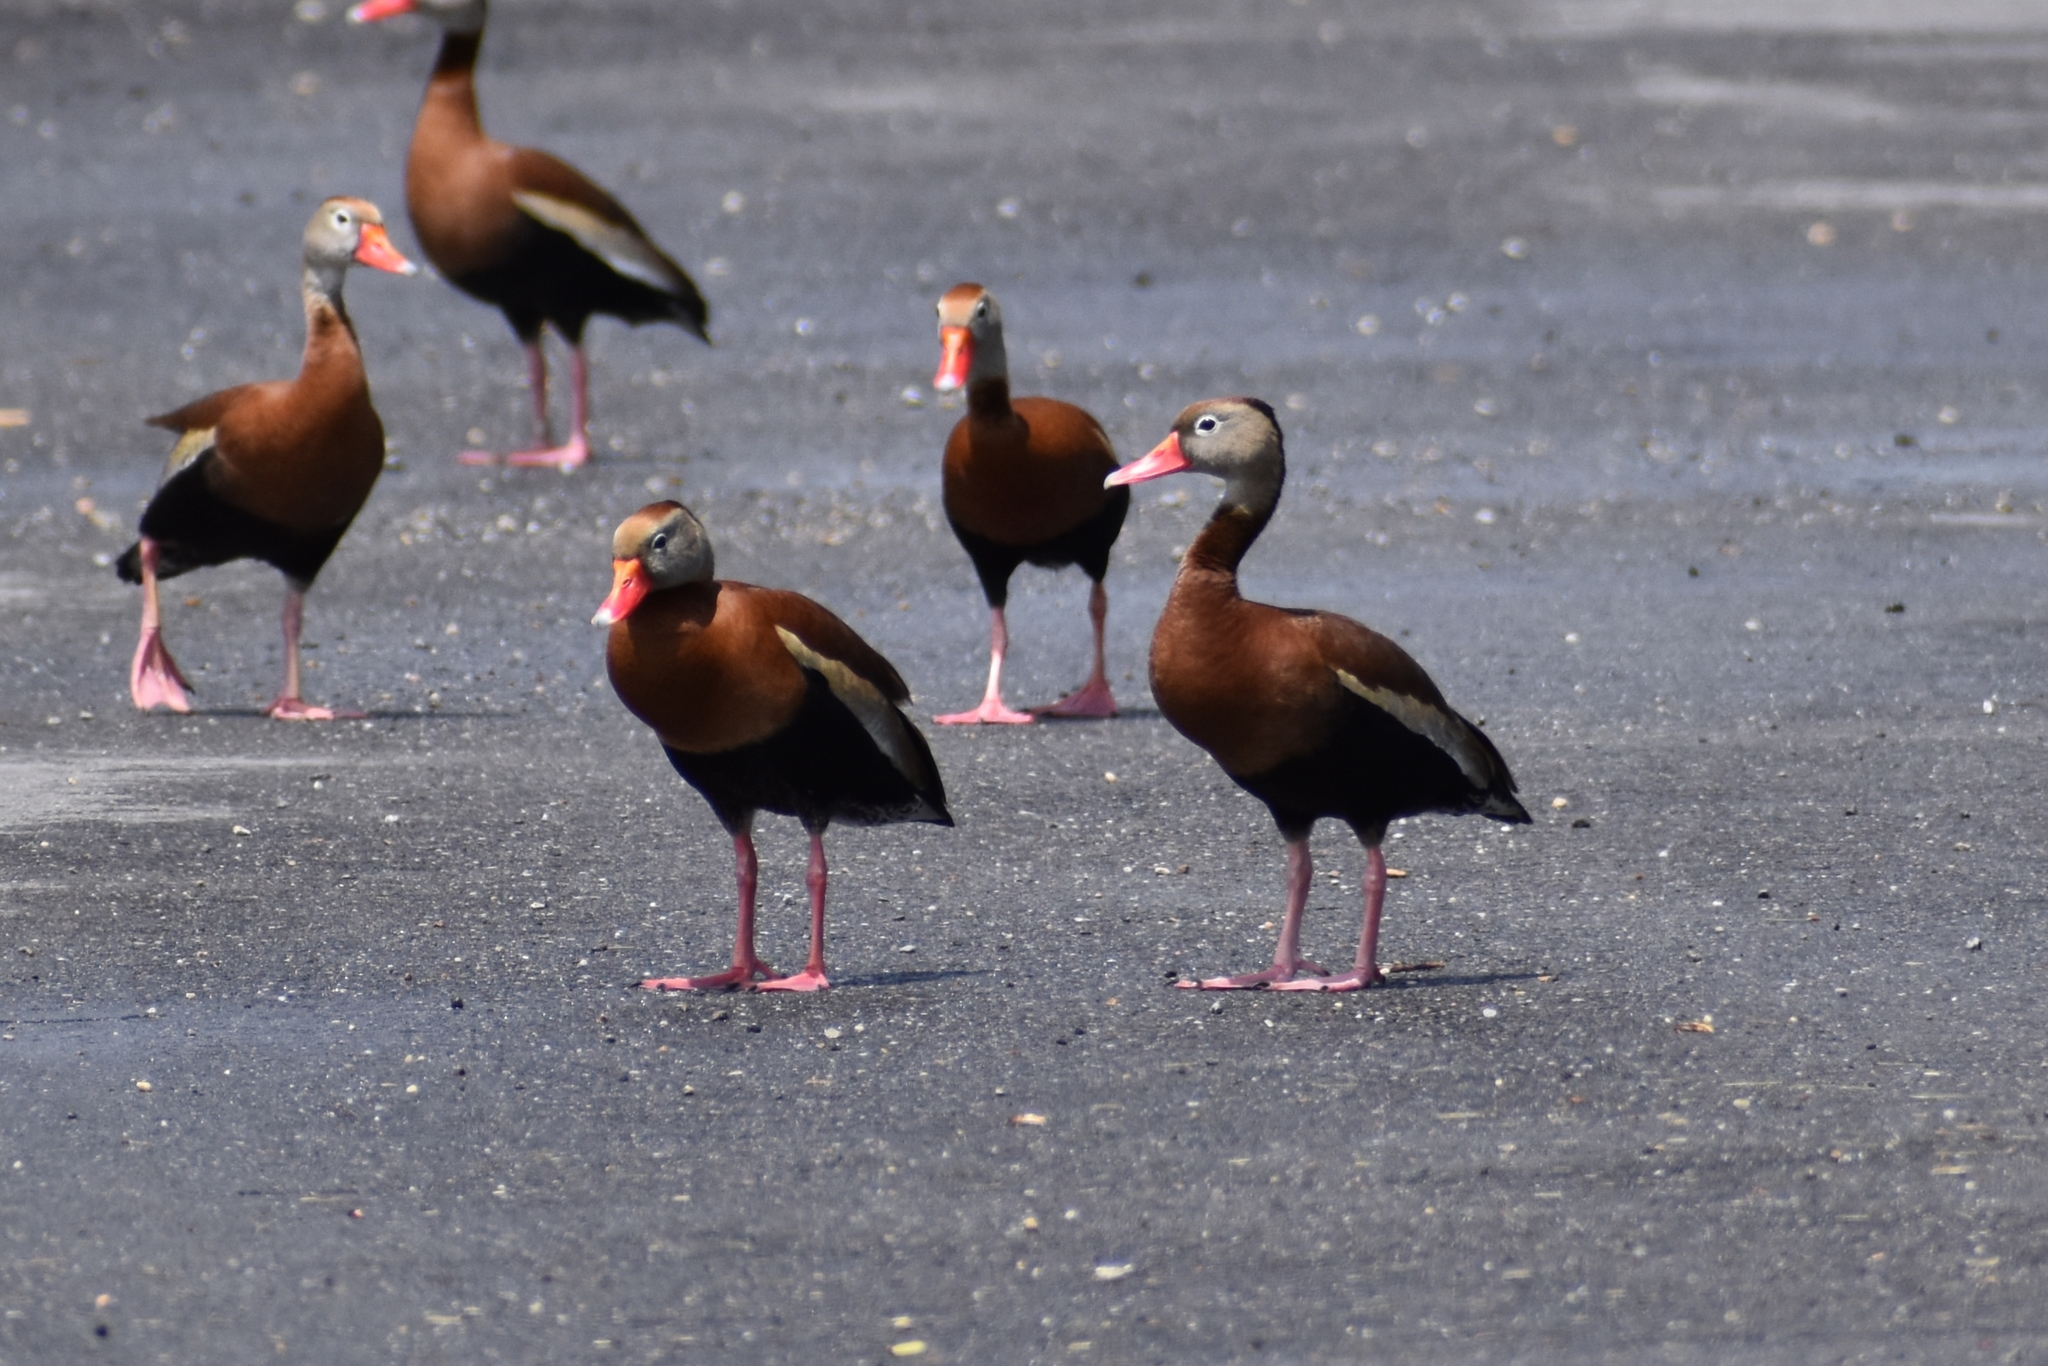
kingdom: Animalia
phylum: Chordata
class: Aves
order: Anseriformes
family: Anatidae
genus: Dendrocygna
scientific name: Dendrocygna autumnalis
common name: Black-bellied whistling duck
